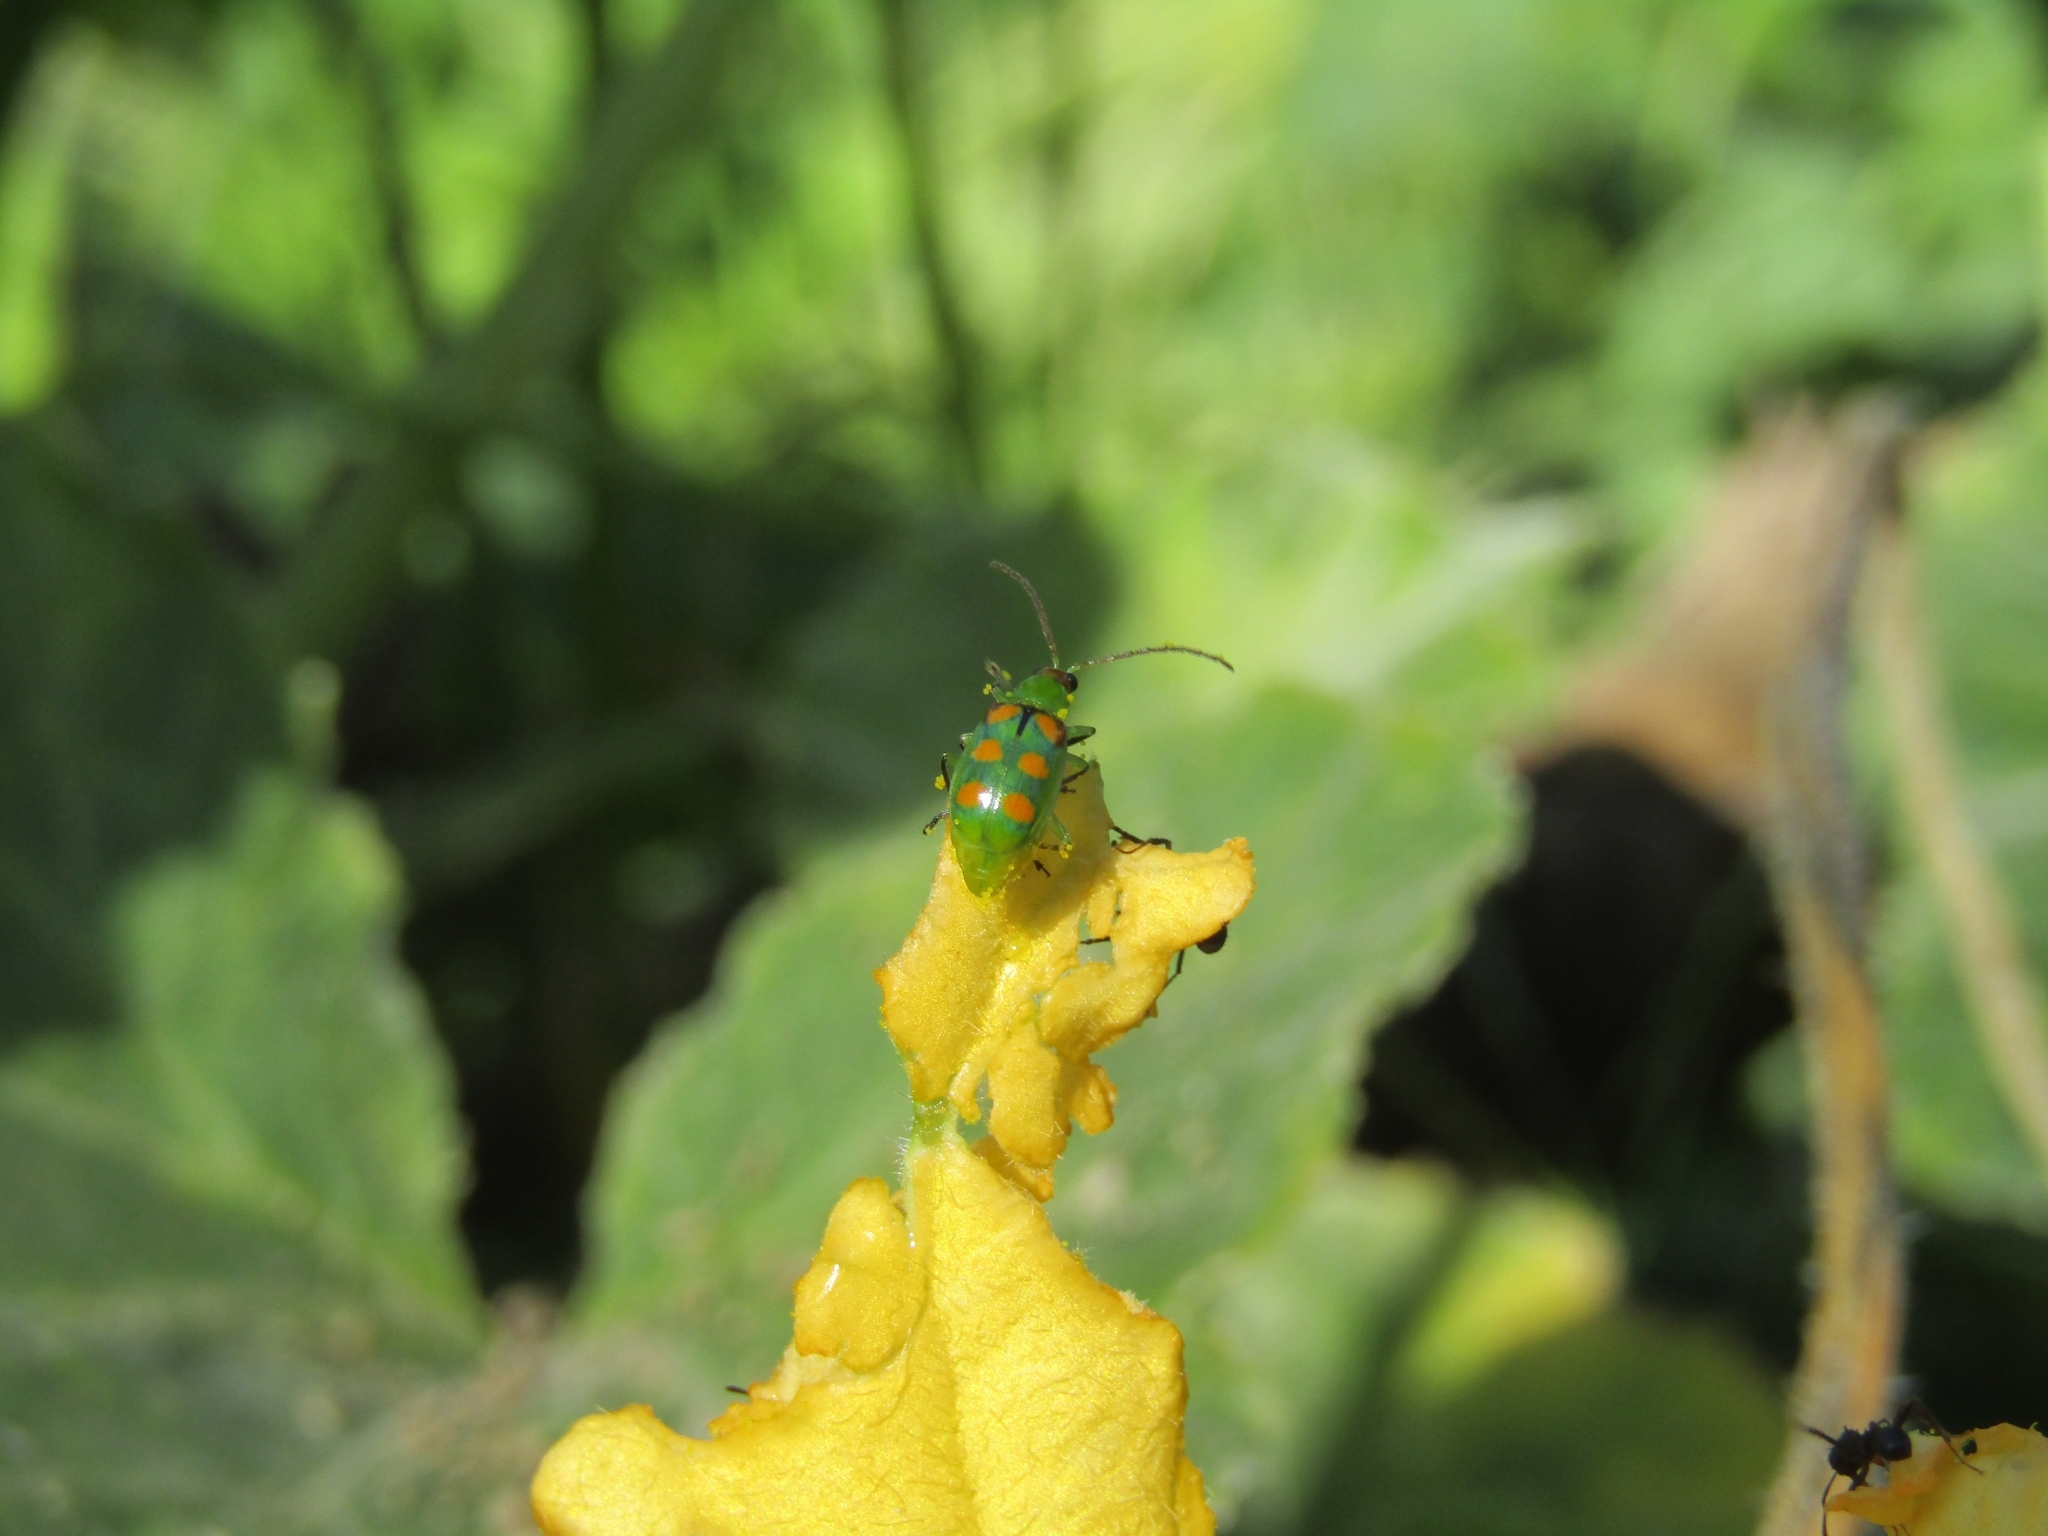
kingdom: Animalia
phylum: Arthropoda
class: Insecta
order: Coleoptera
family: Chrysomelidae
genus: Diabrotica
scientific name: Diabrotica speciosa
